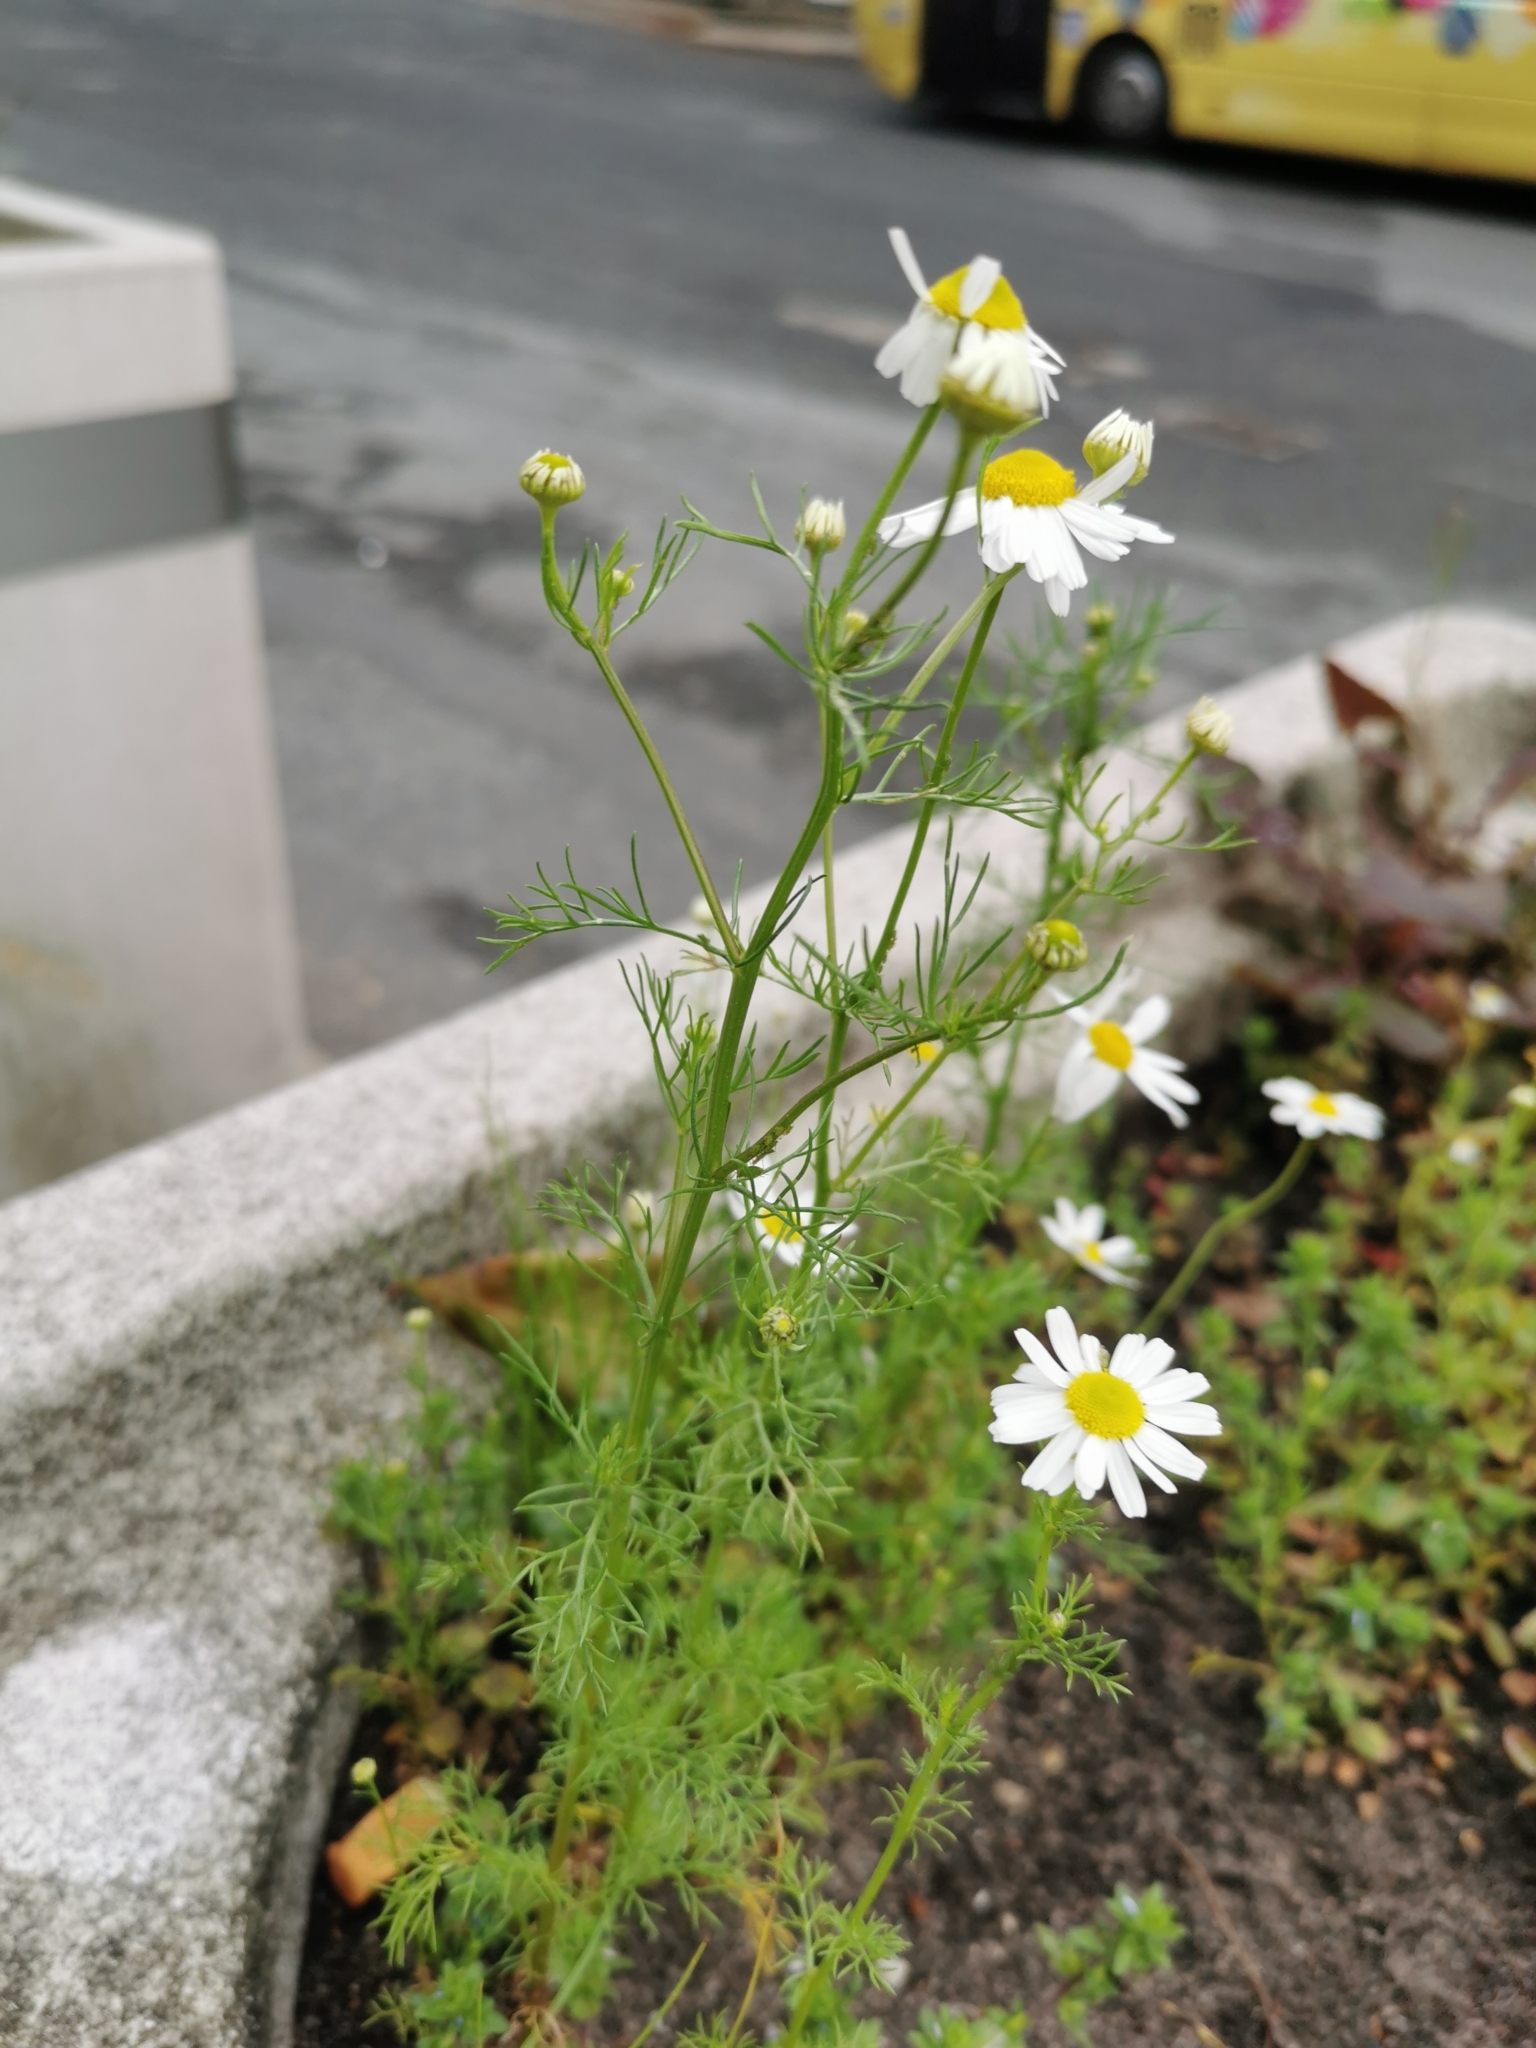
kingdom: Plantae
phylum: Tracheophyta
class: Magnoliopsida
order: Asterales
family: Asteraceae
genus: Tripleurospermum
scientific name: Tripleurospermum inodorum
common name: Scentless mayweed
